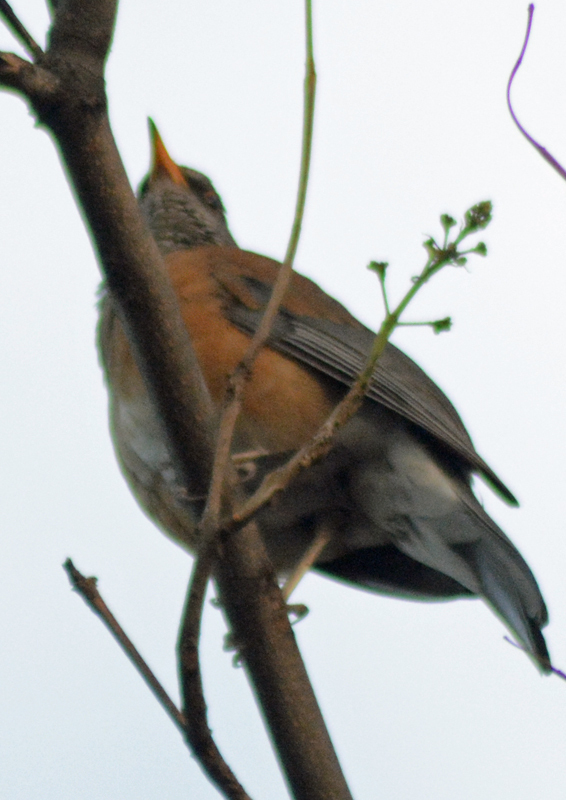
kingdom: Animalia
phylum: Chordata
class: Aves
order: Passeriformes
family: Turdidae
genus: Turdus
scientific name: Turdus rufopalliatus
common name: Rufous-backed robin
